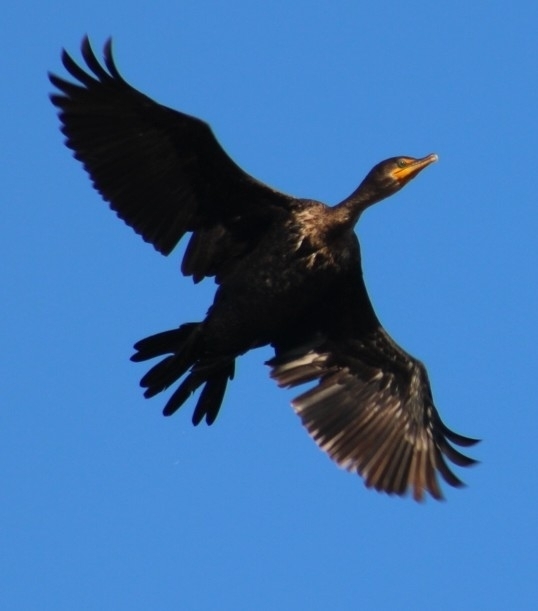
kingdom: Animalia
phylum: Chordata
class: Aves
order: Suliformes
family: Phalacrocoracidae
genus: Phalacrocorax
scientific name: Phalacrocorax auritus
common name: Double-crested cormorant
